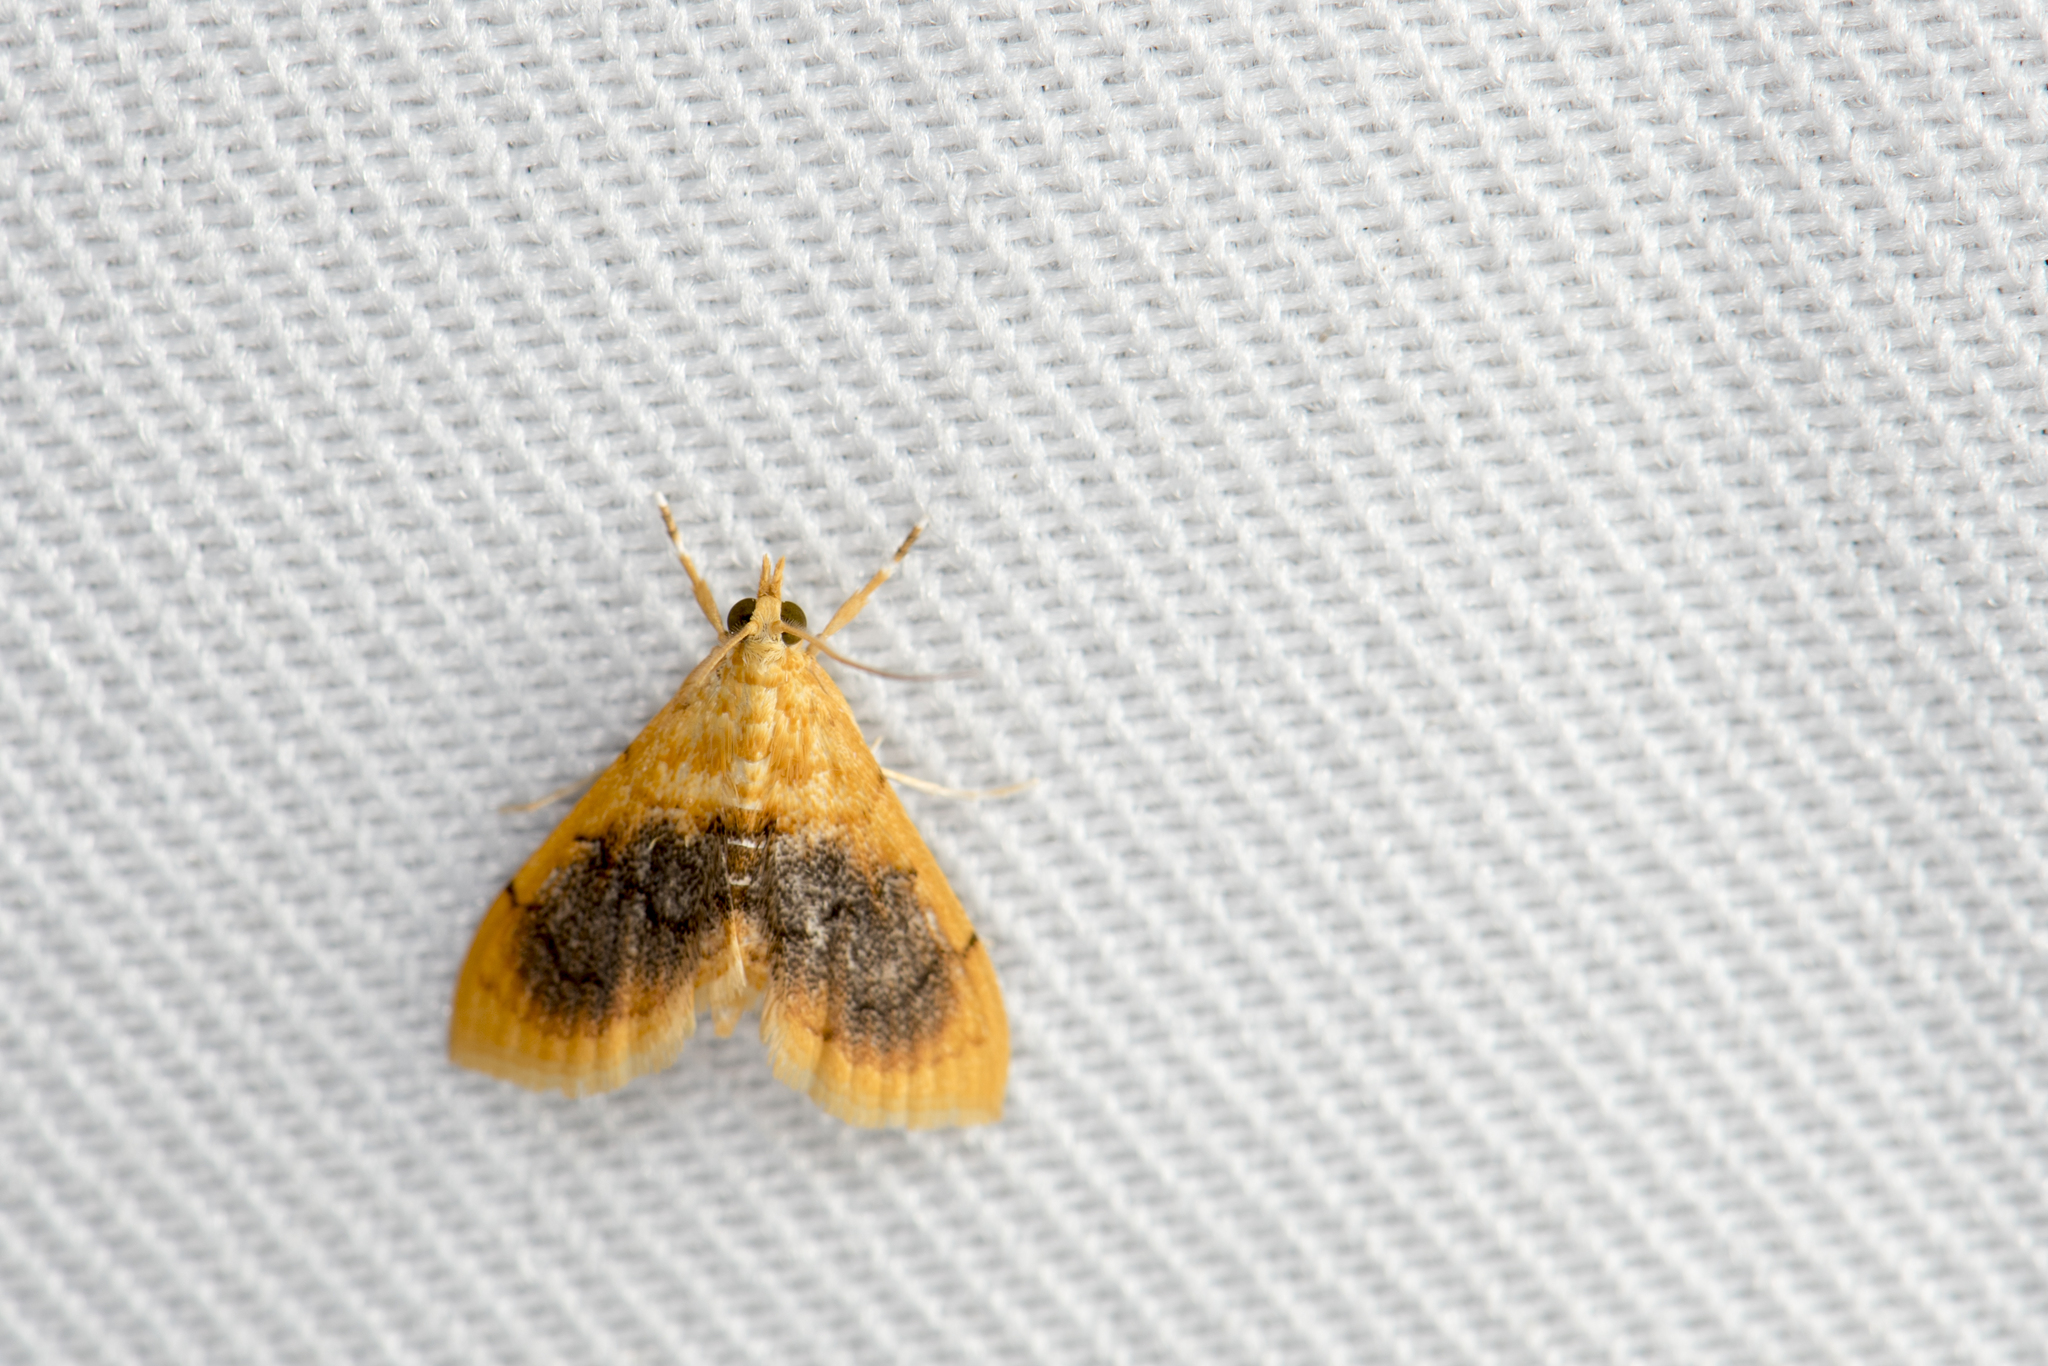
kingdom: Animalia
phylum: Arthropoda
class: Insecta
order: Lepidoptera
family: Crambidae
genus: Mabra
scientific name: Mabra eryxalis
